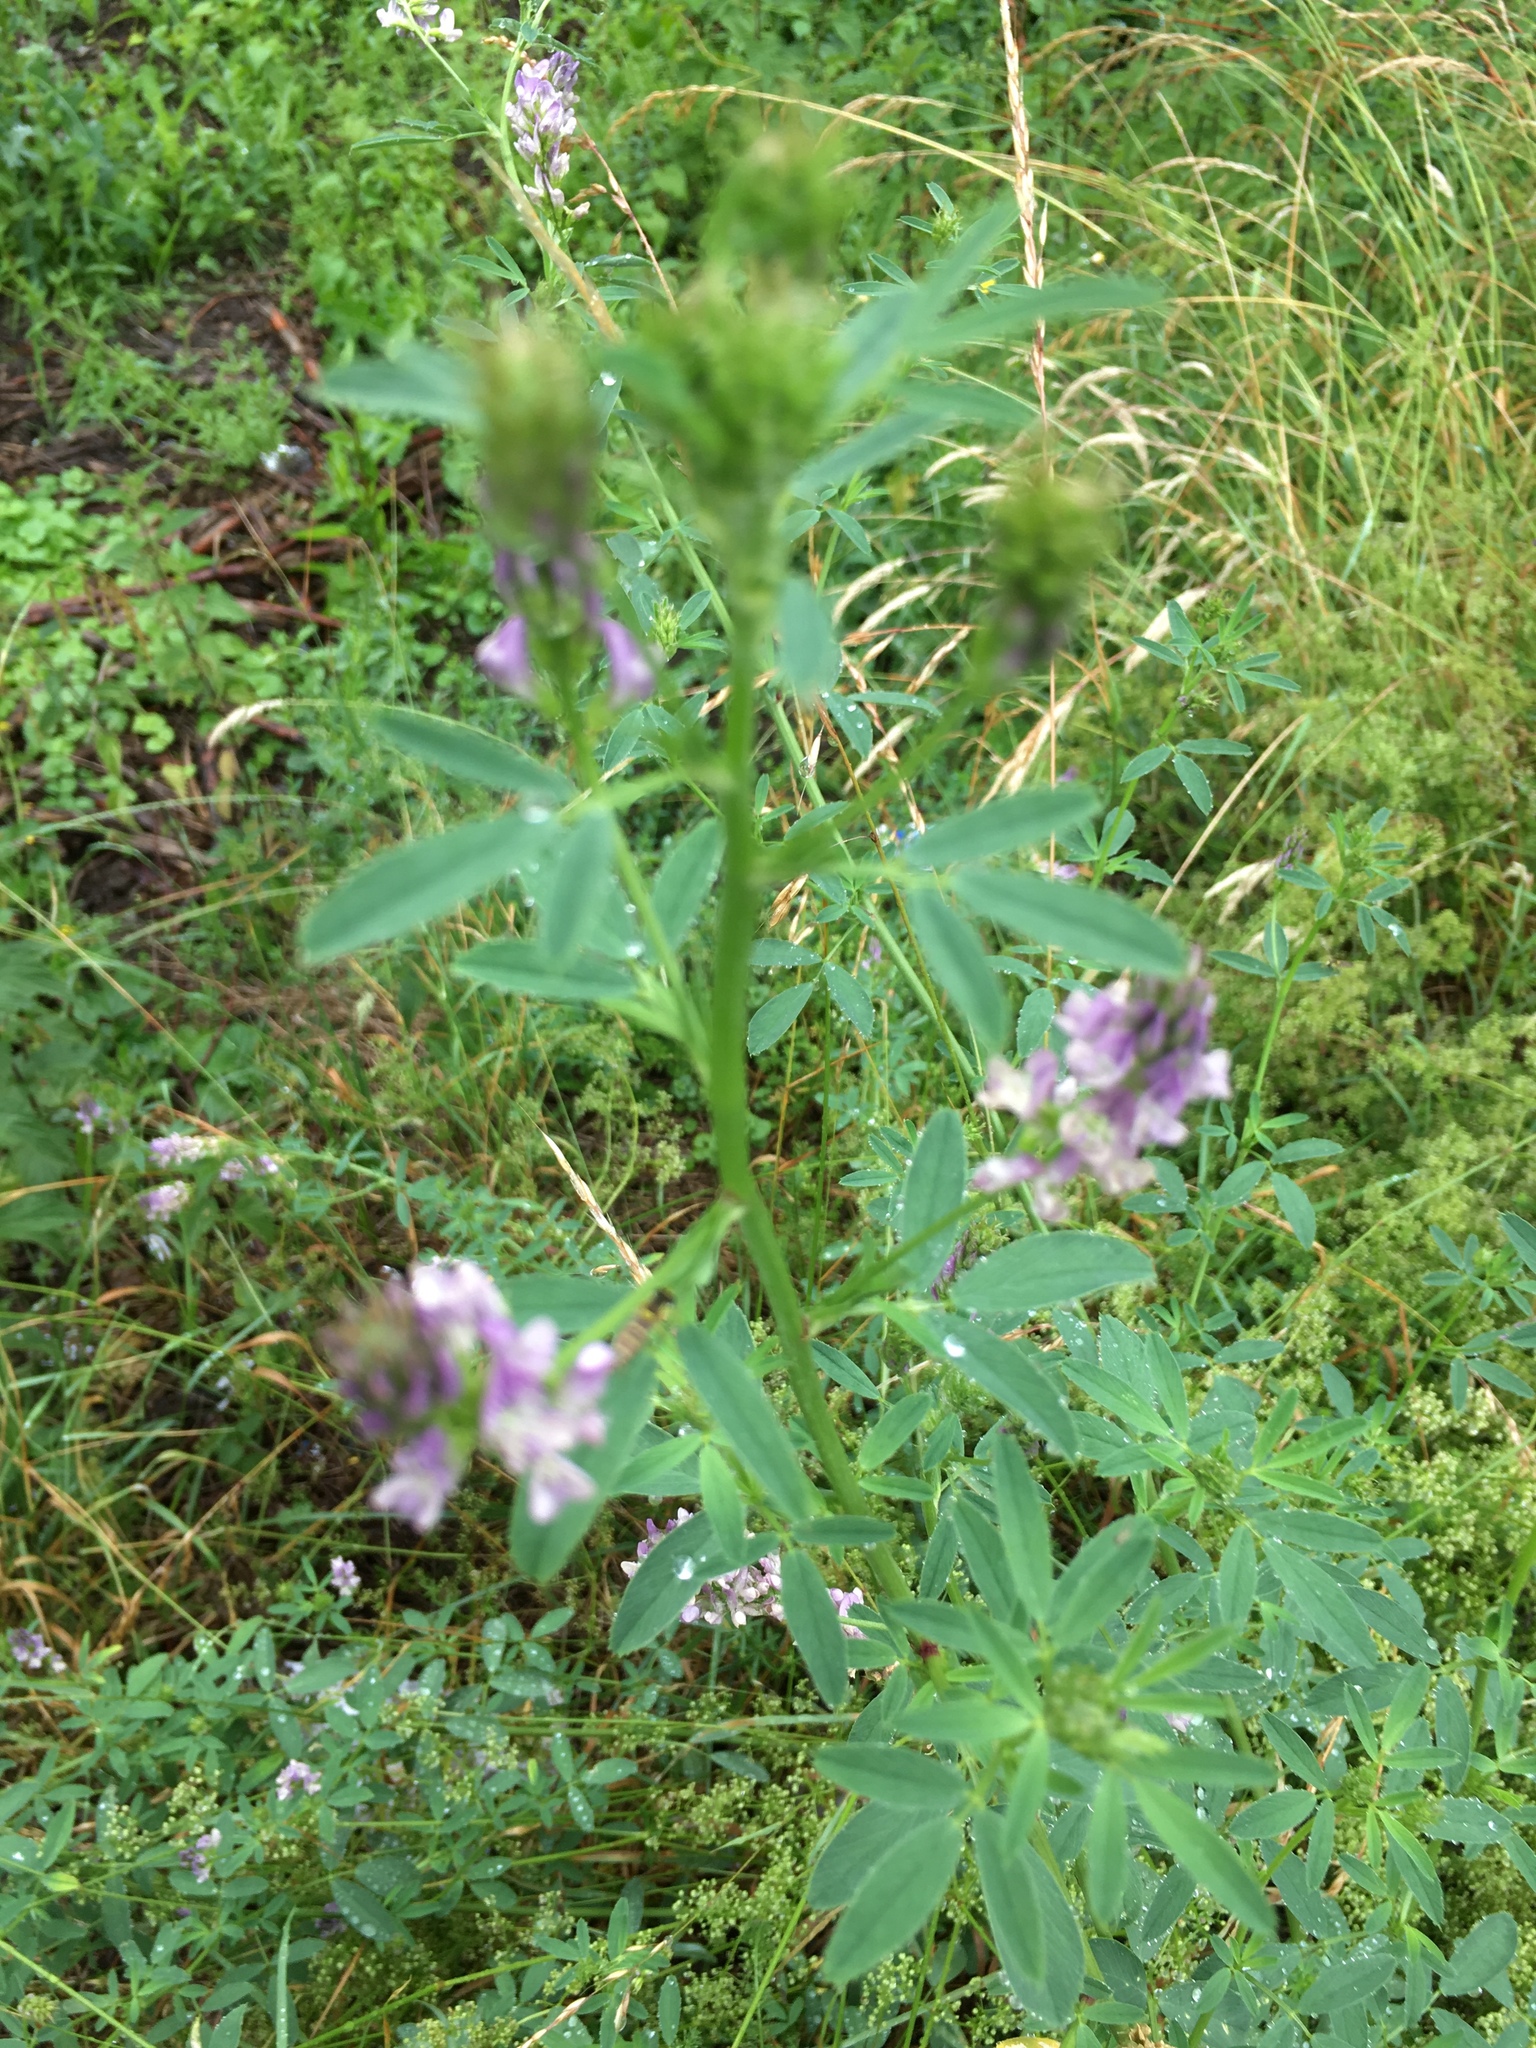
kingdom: Plantae
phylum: Tracheophyta
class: Magnoliopsida
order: Fabales
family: Fabaceae
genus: Medicago
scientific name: Medicago varia
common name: Sand lucerne
